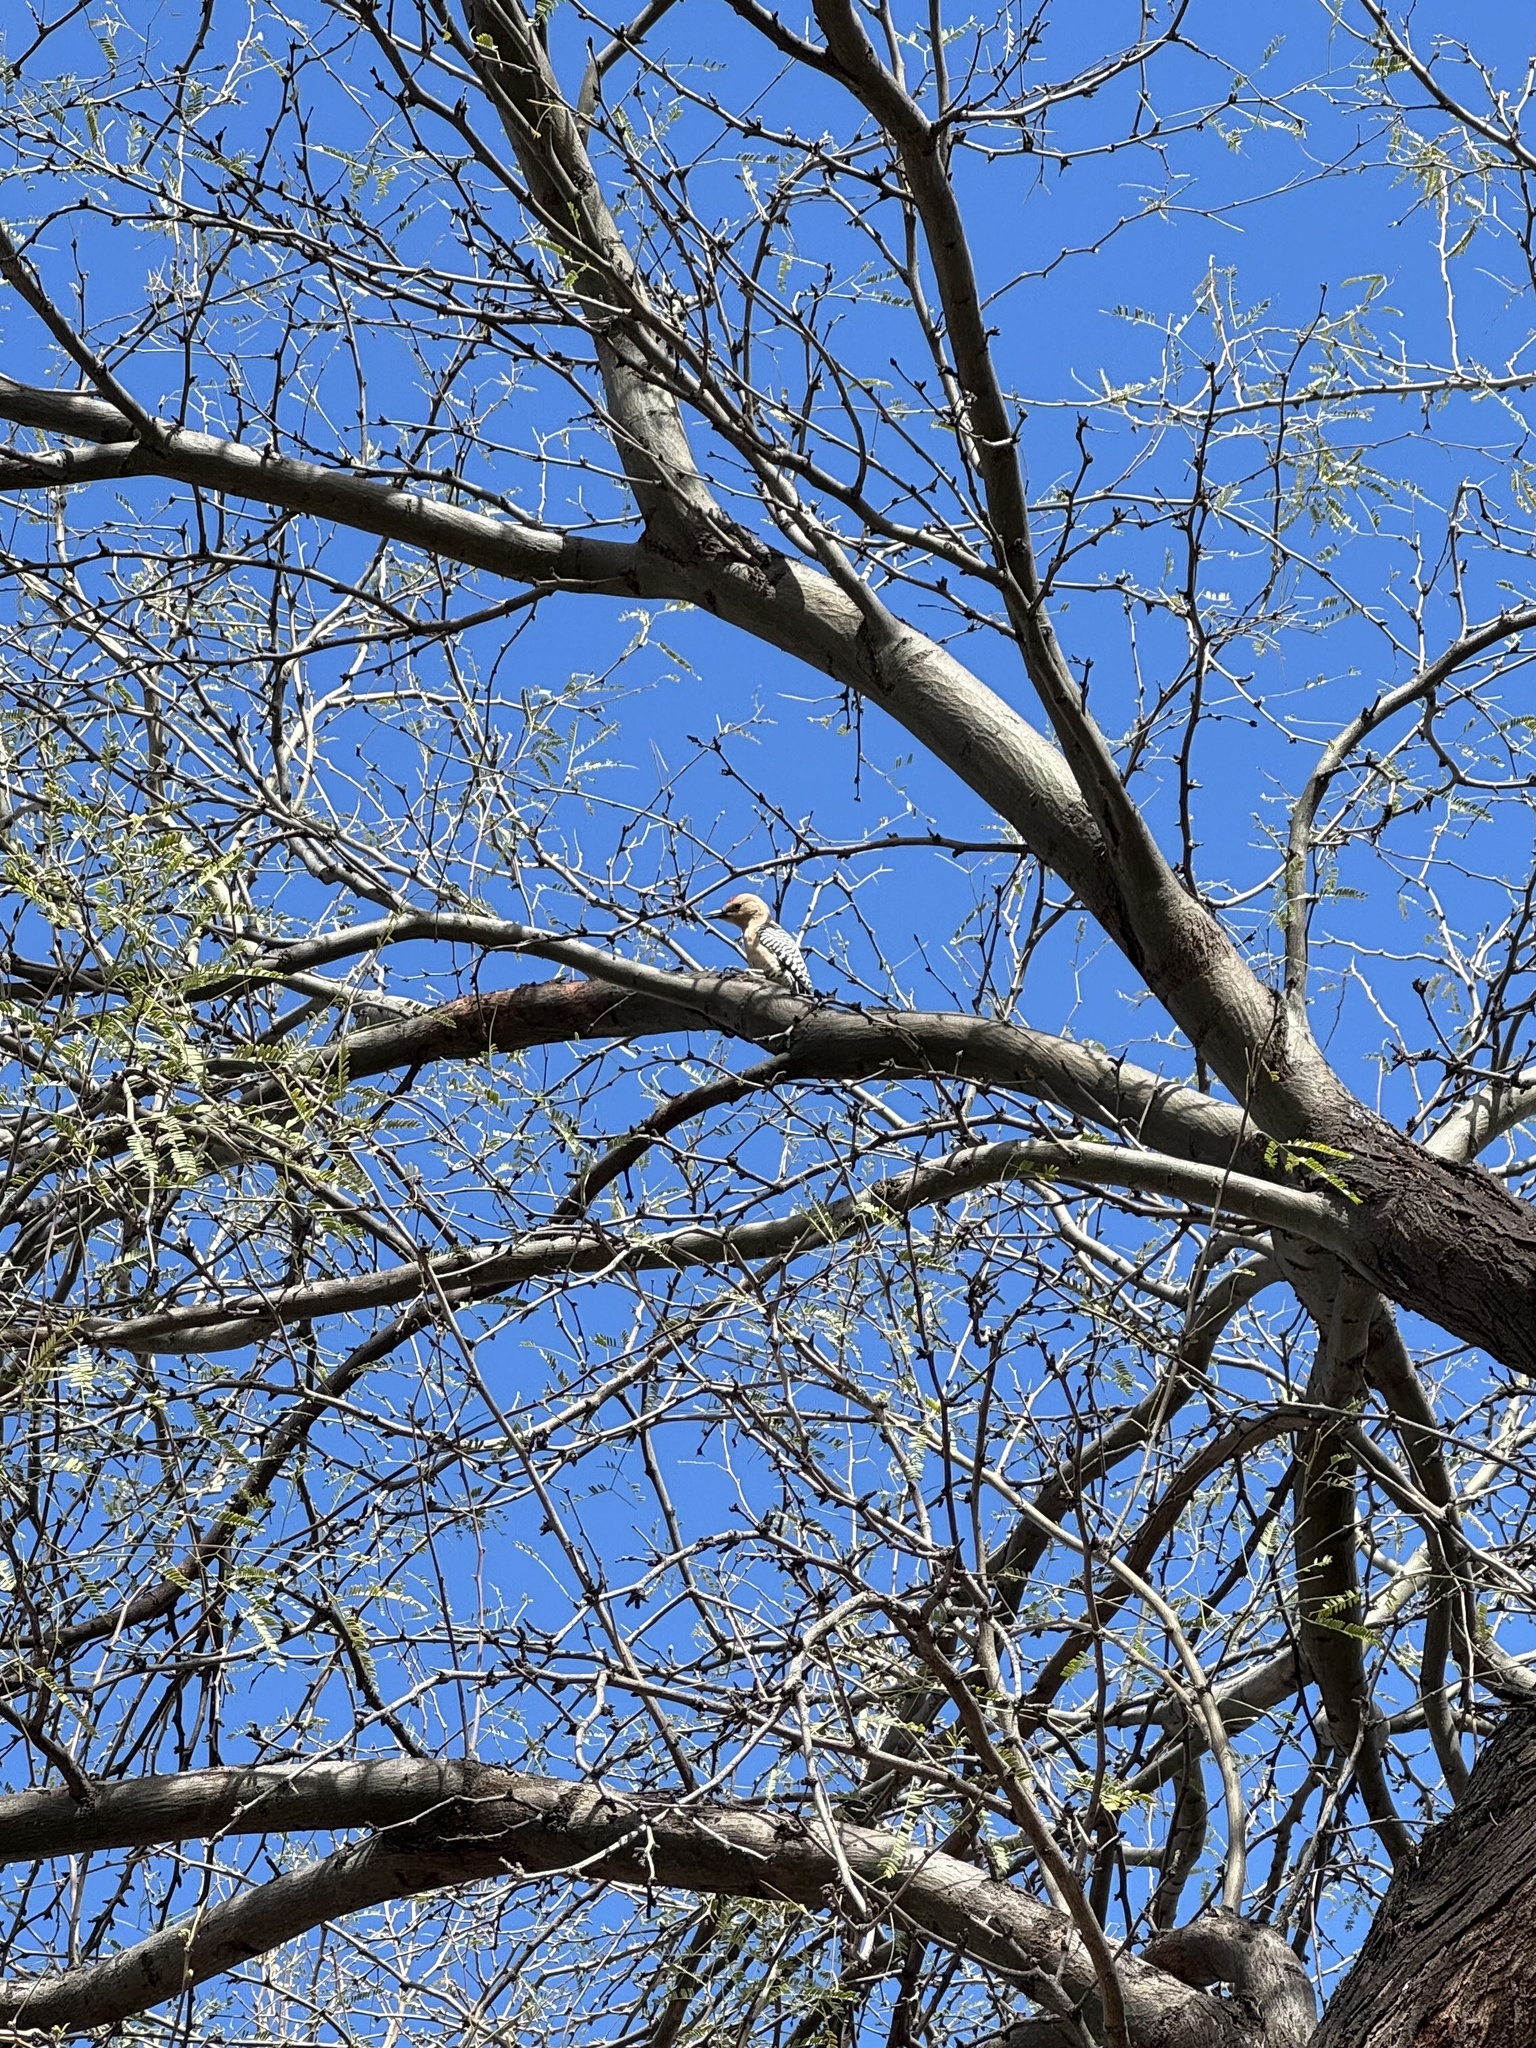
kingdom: Animalia
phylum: Chordata
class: Aves
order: Piciformes
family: Picidae
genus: Melanerpes
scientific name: Melanerpes uropygialis
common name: Gila woodpecker
